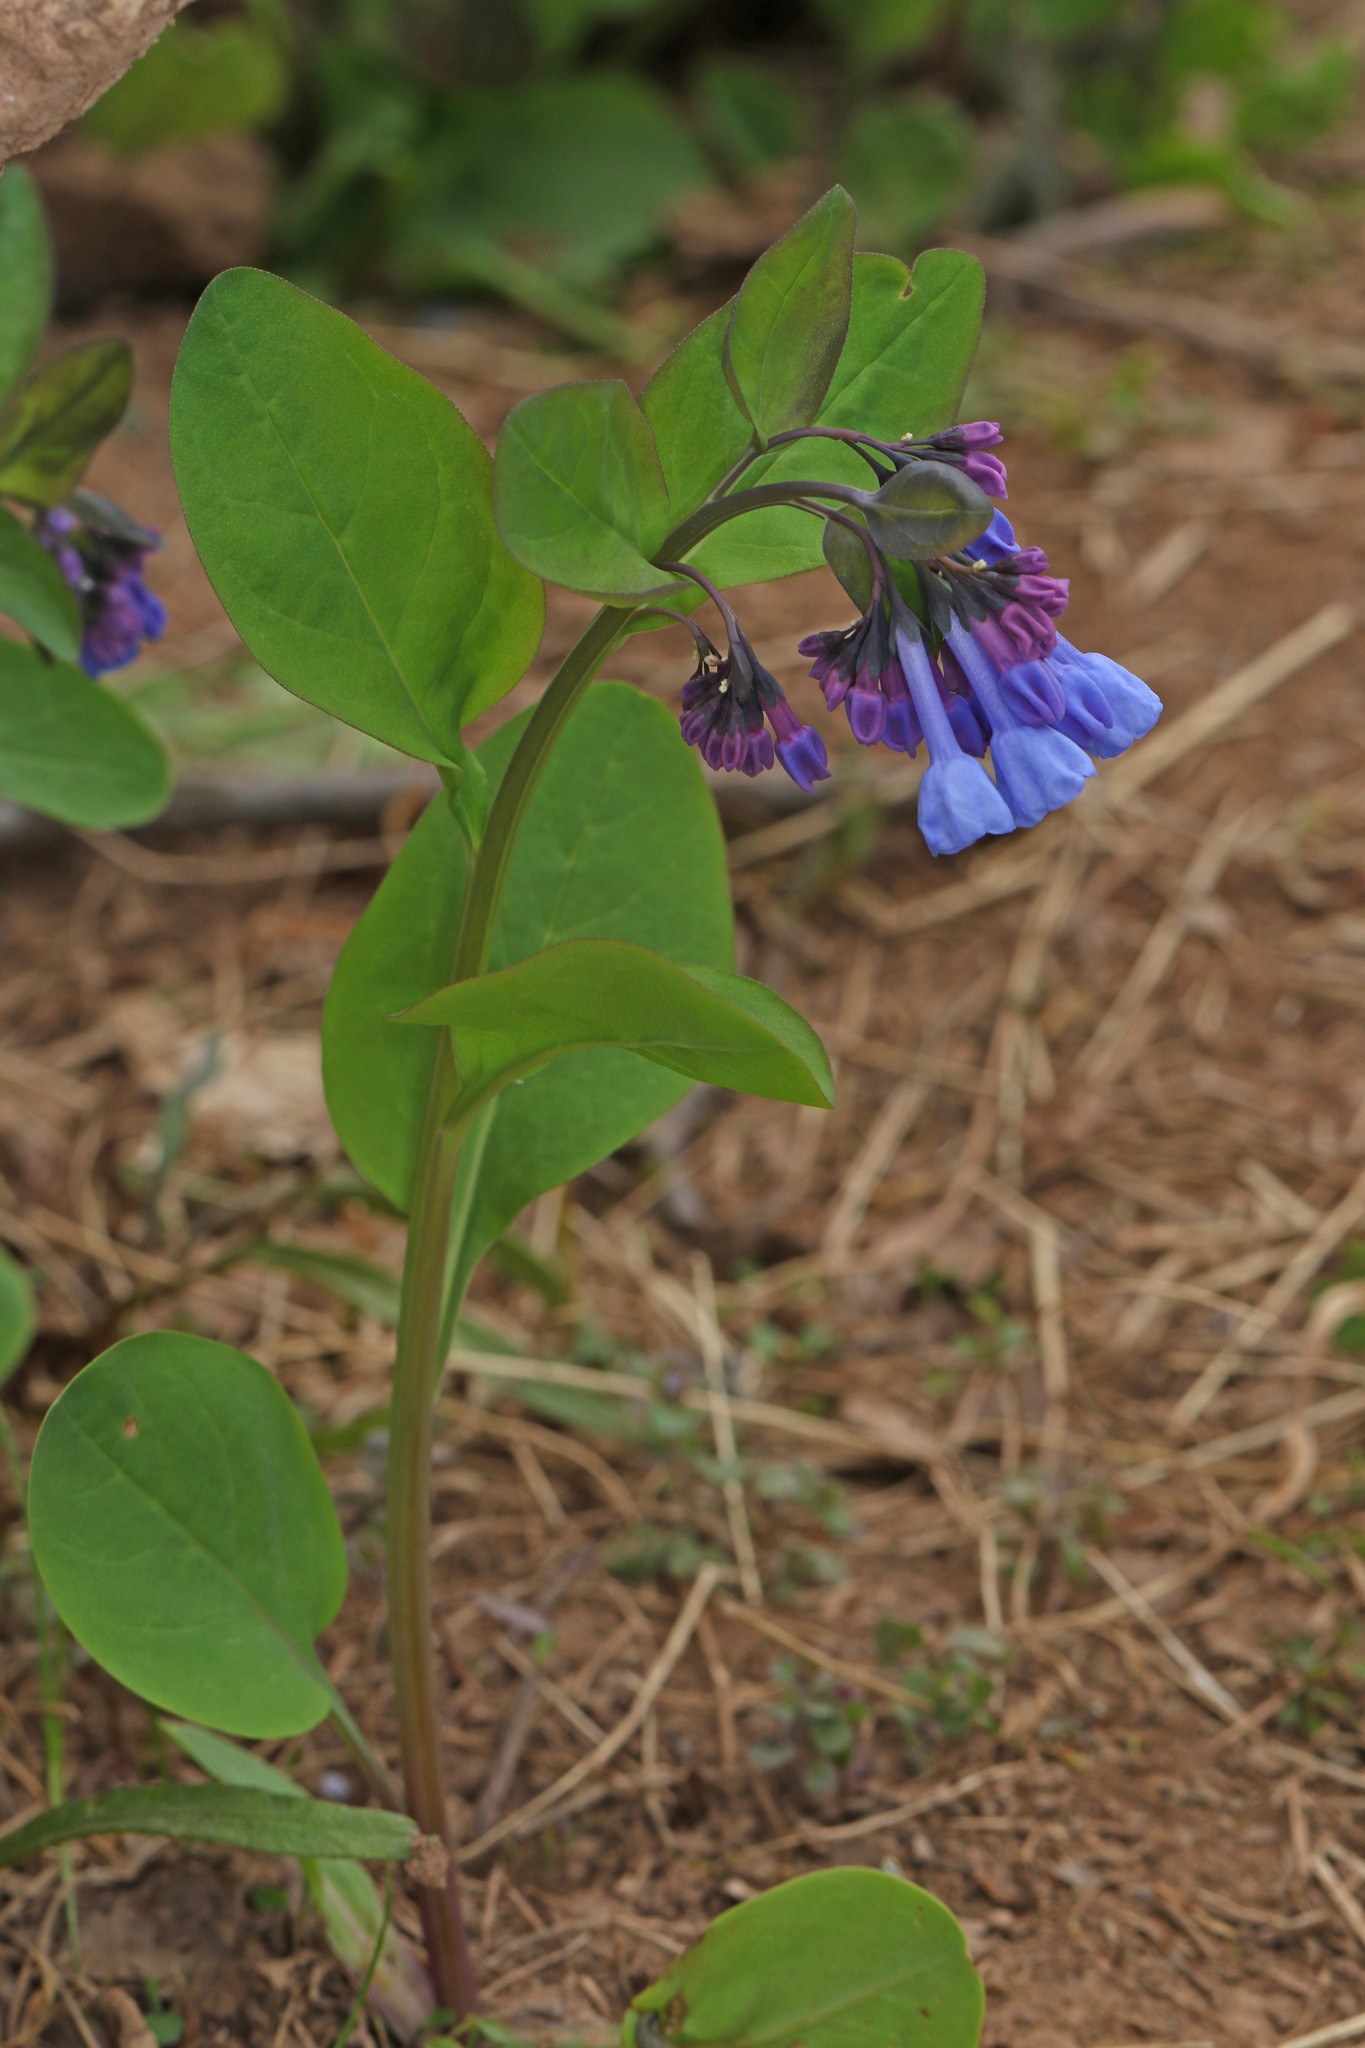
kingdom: Plantae
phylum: Tracheophyta
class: Magnoliopsida
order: Boraginales
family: Boraginaceae
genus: Mertensia
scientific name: Mertensia virginica
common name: Virginia bluebells
